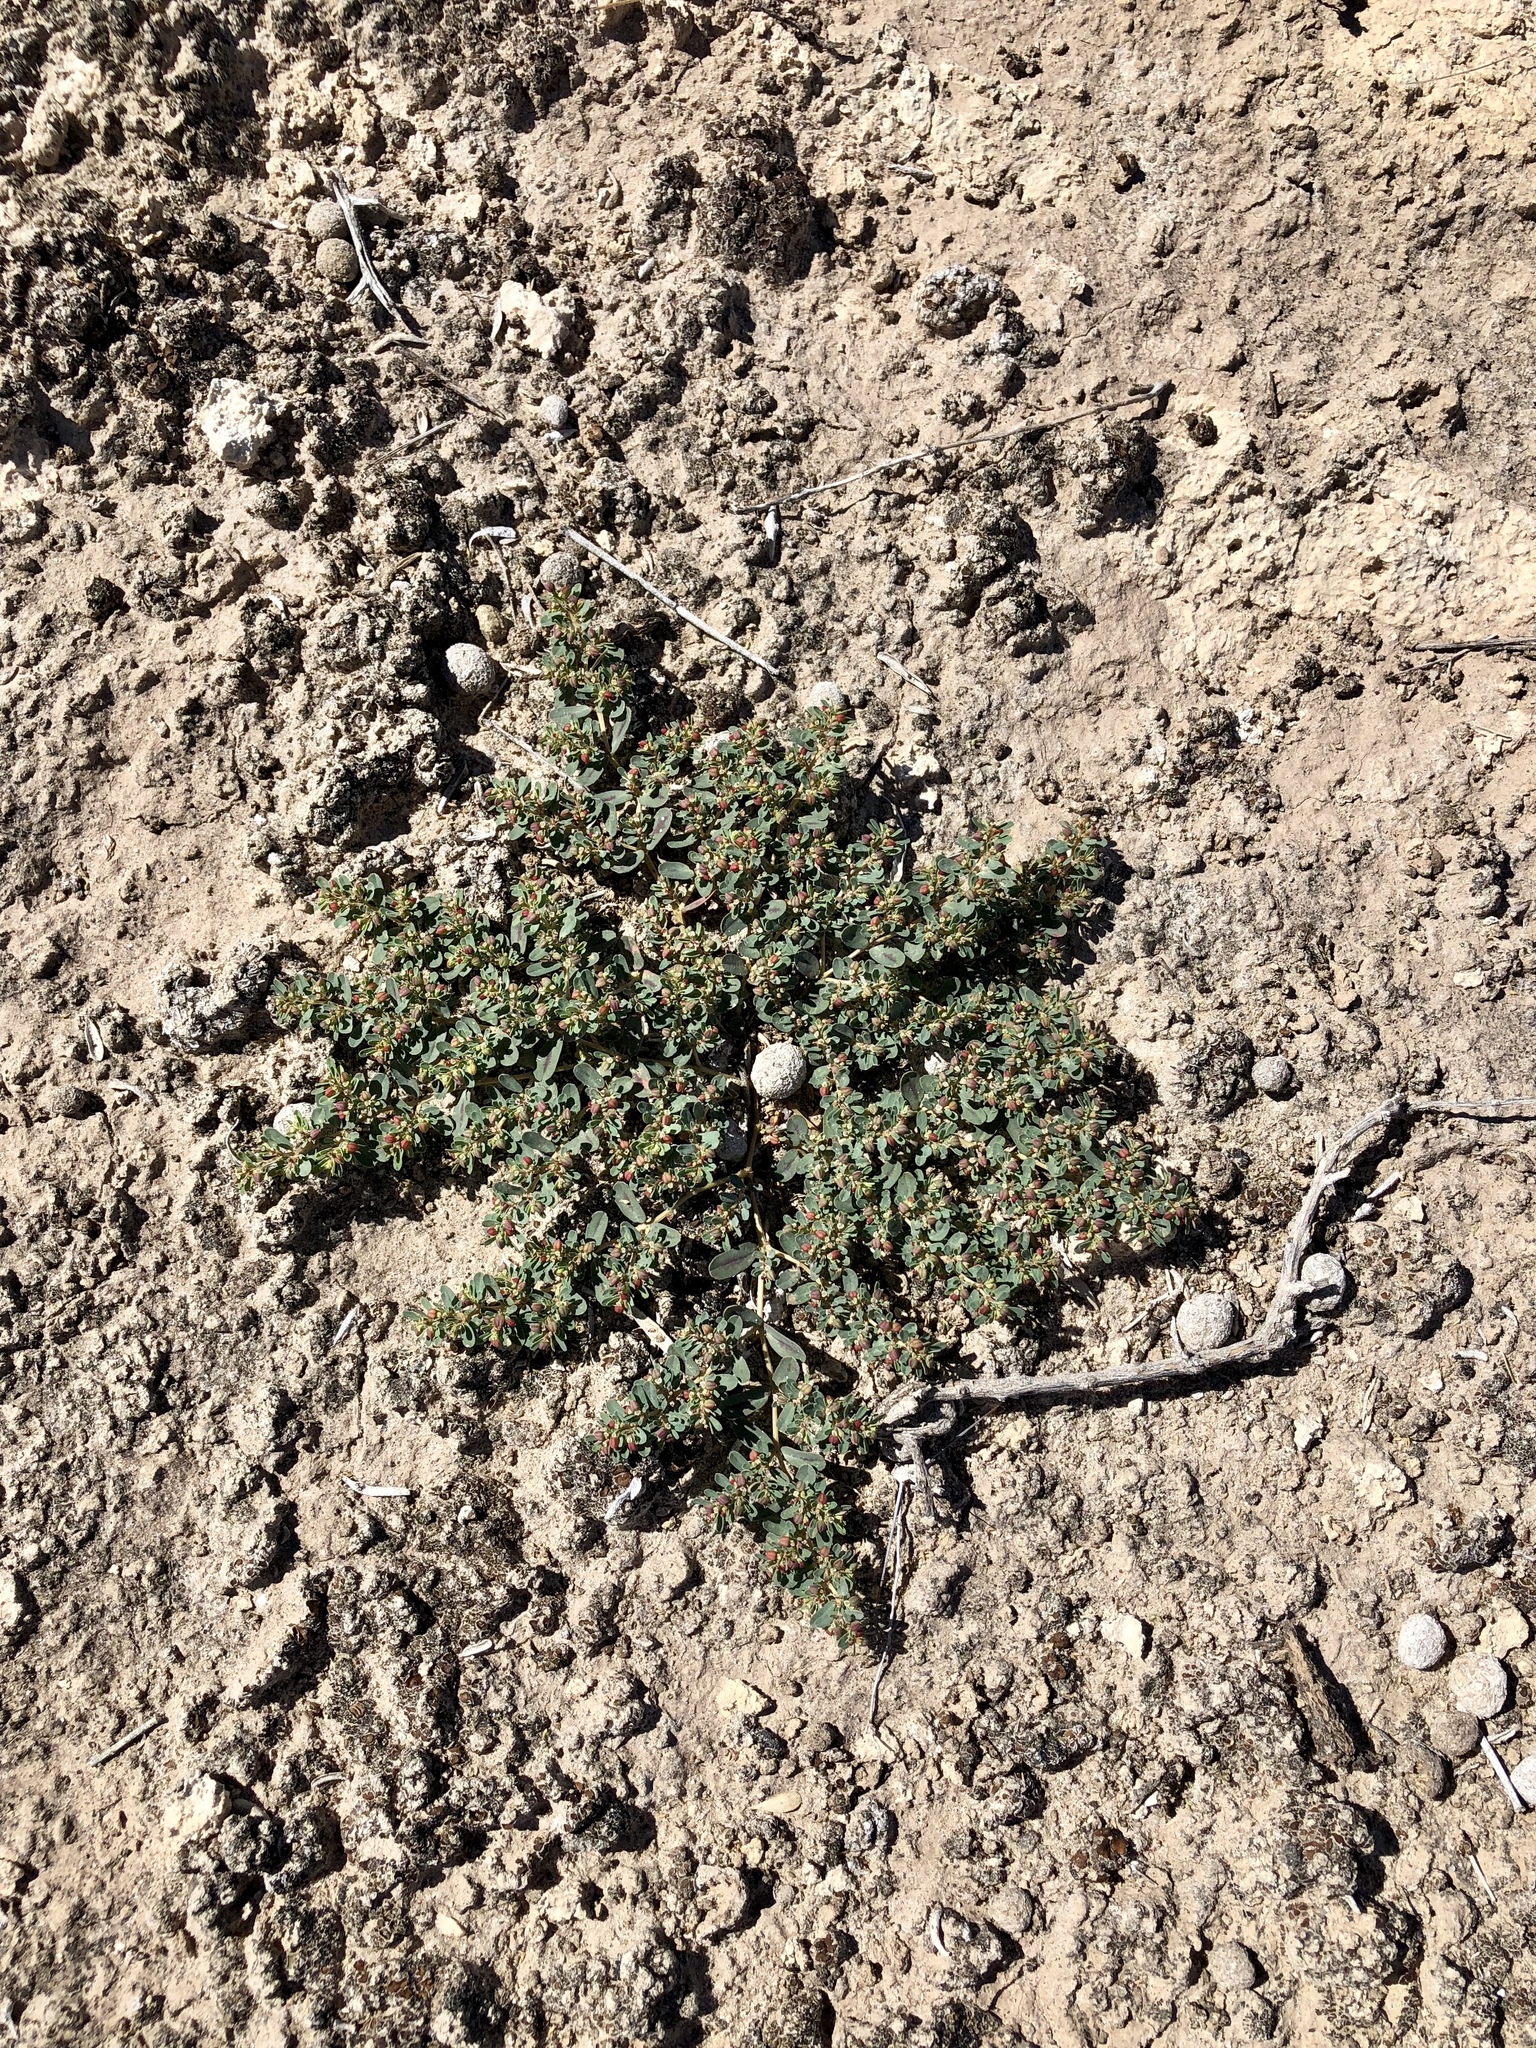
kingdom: Plantae
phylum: Tracheophyta
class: Magnoliopsida
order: Malpighiales
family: Euphorbiaceae
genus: Euphorbia
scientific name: Euphorbia serpillifolia
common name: Thyme-leaf spurge
